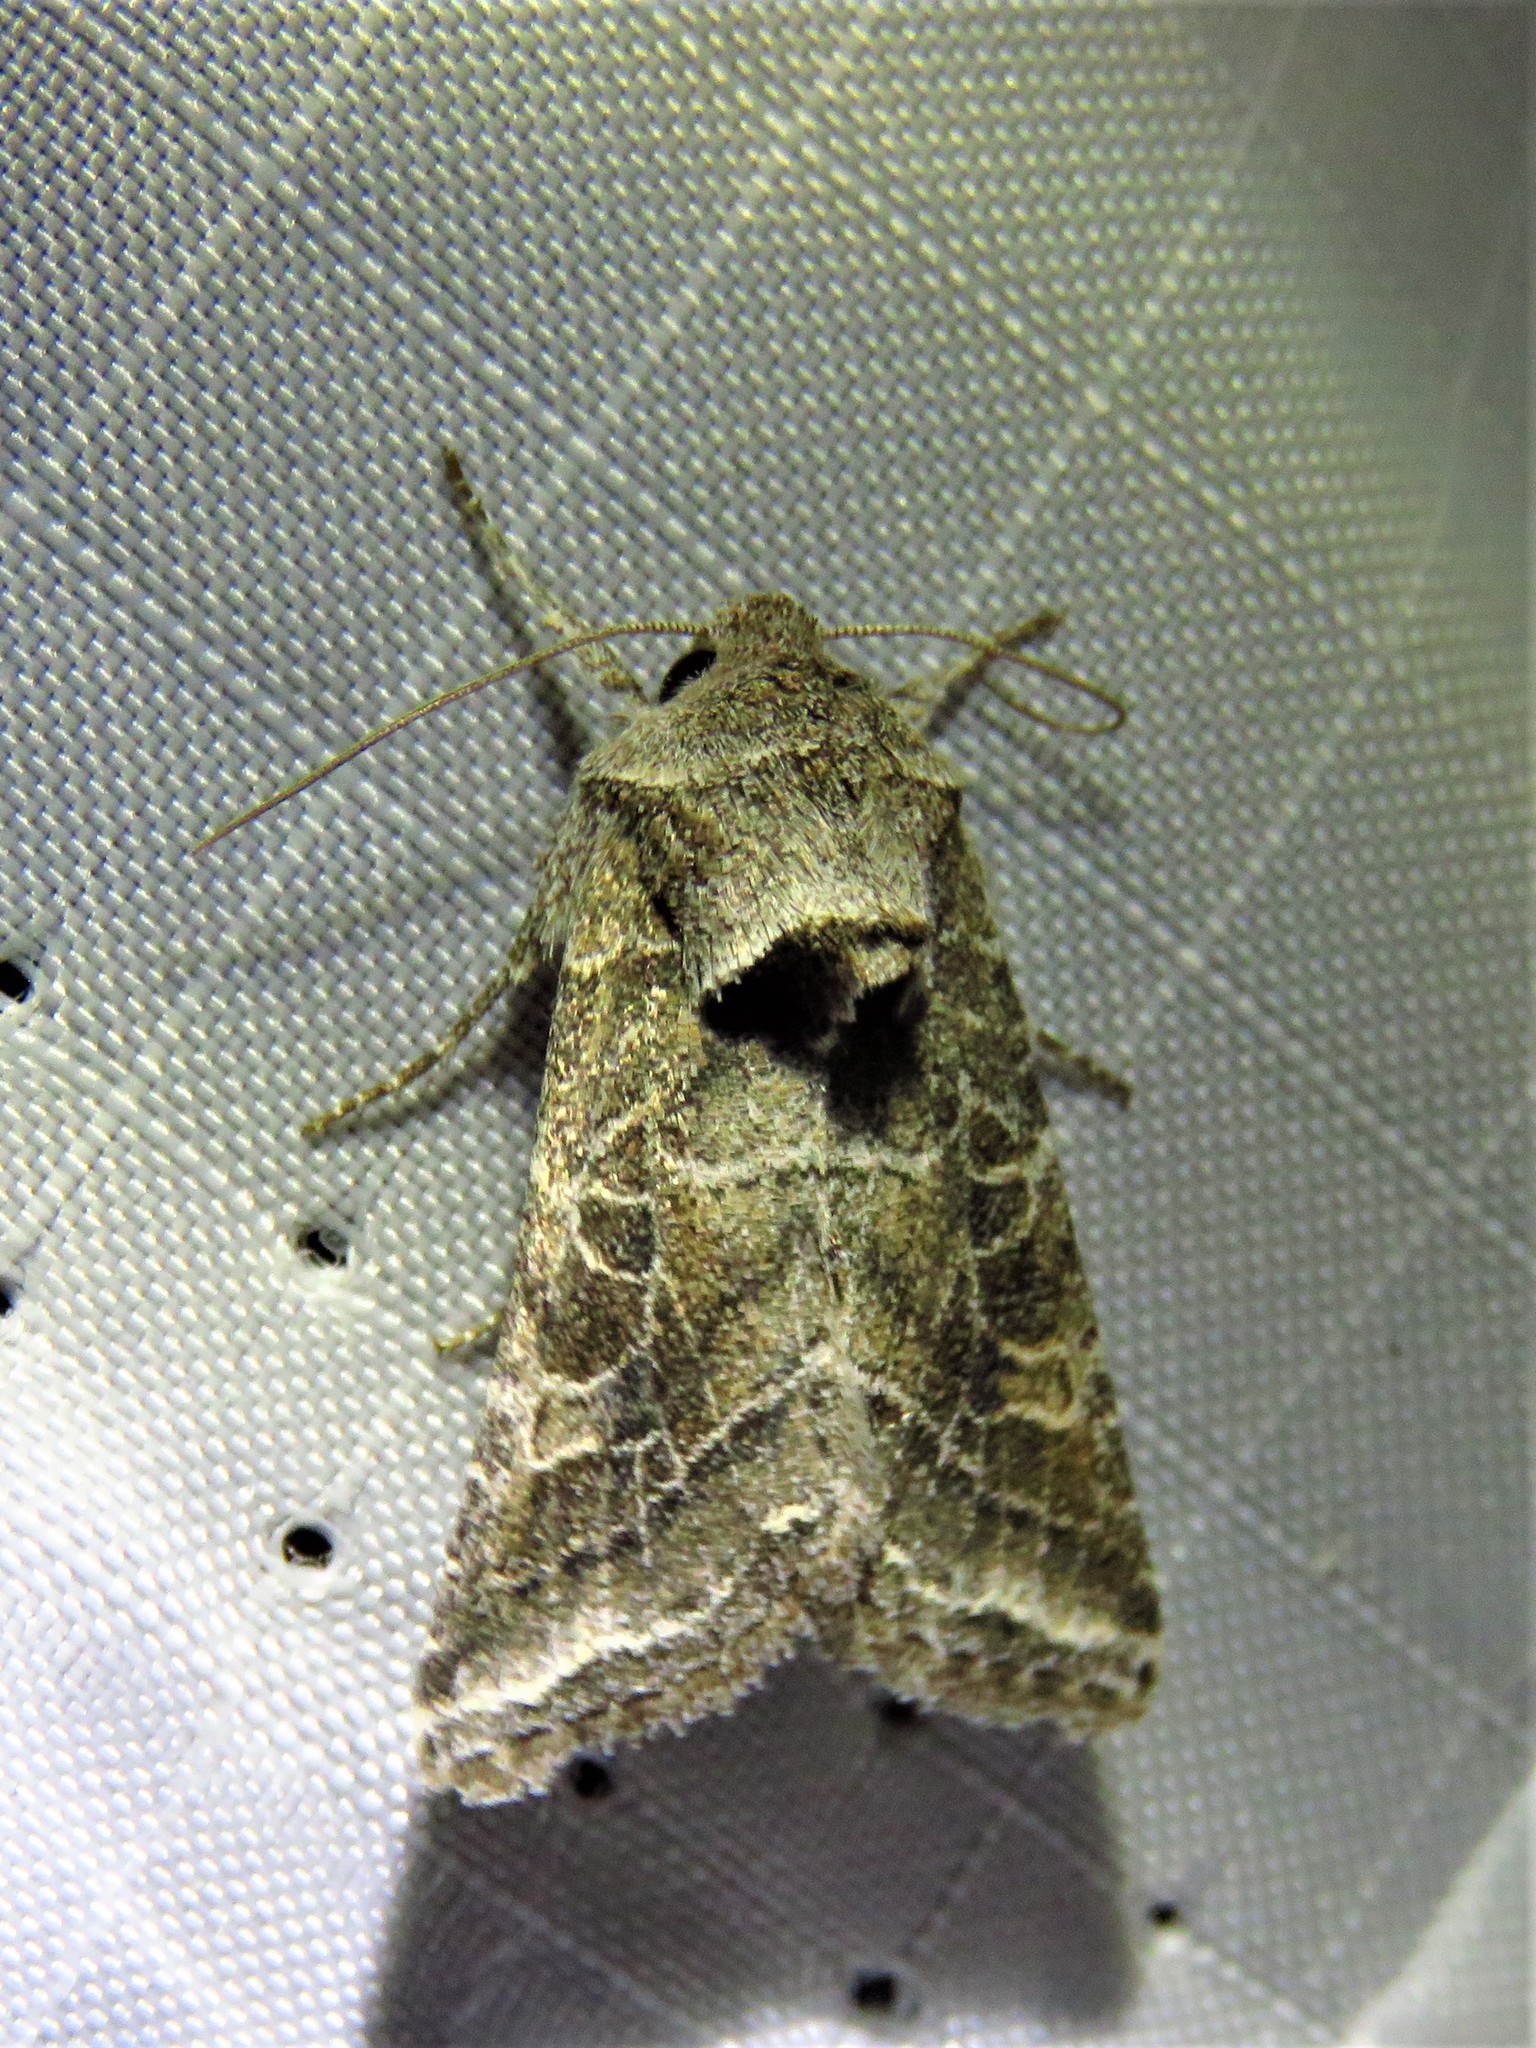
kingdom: Animalia
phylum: Arthropoda
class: Insecta
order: Lepidoptera
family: Noctuidae
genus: Lacinipolia
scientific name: Lacinipolia erecta
